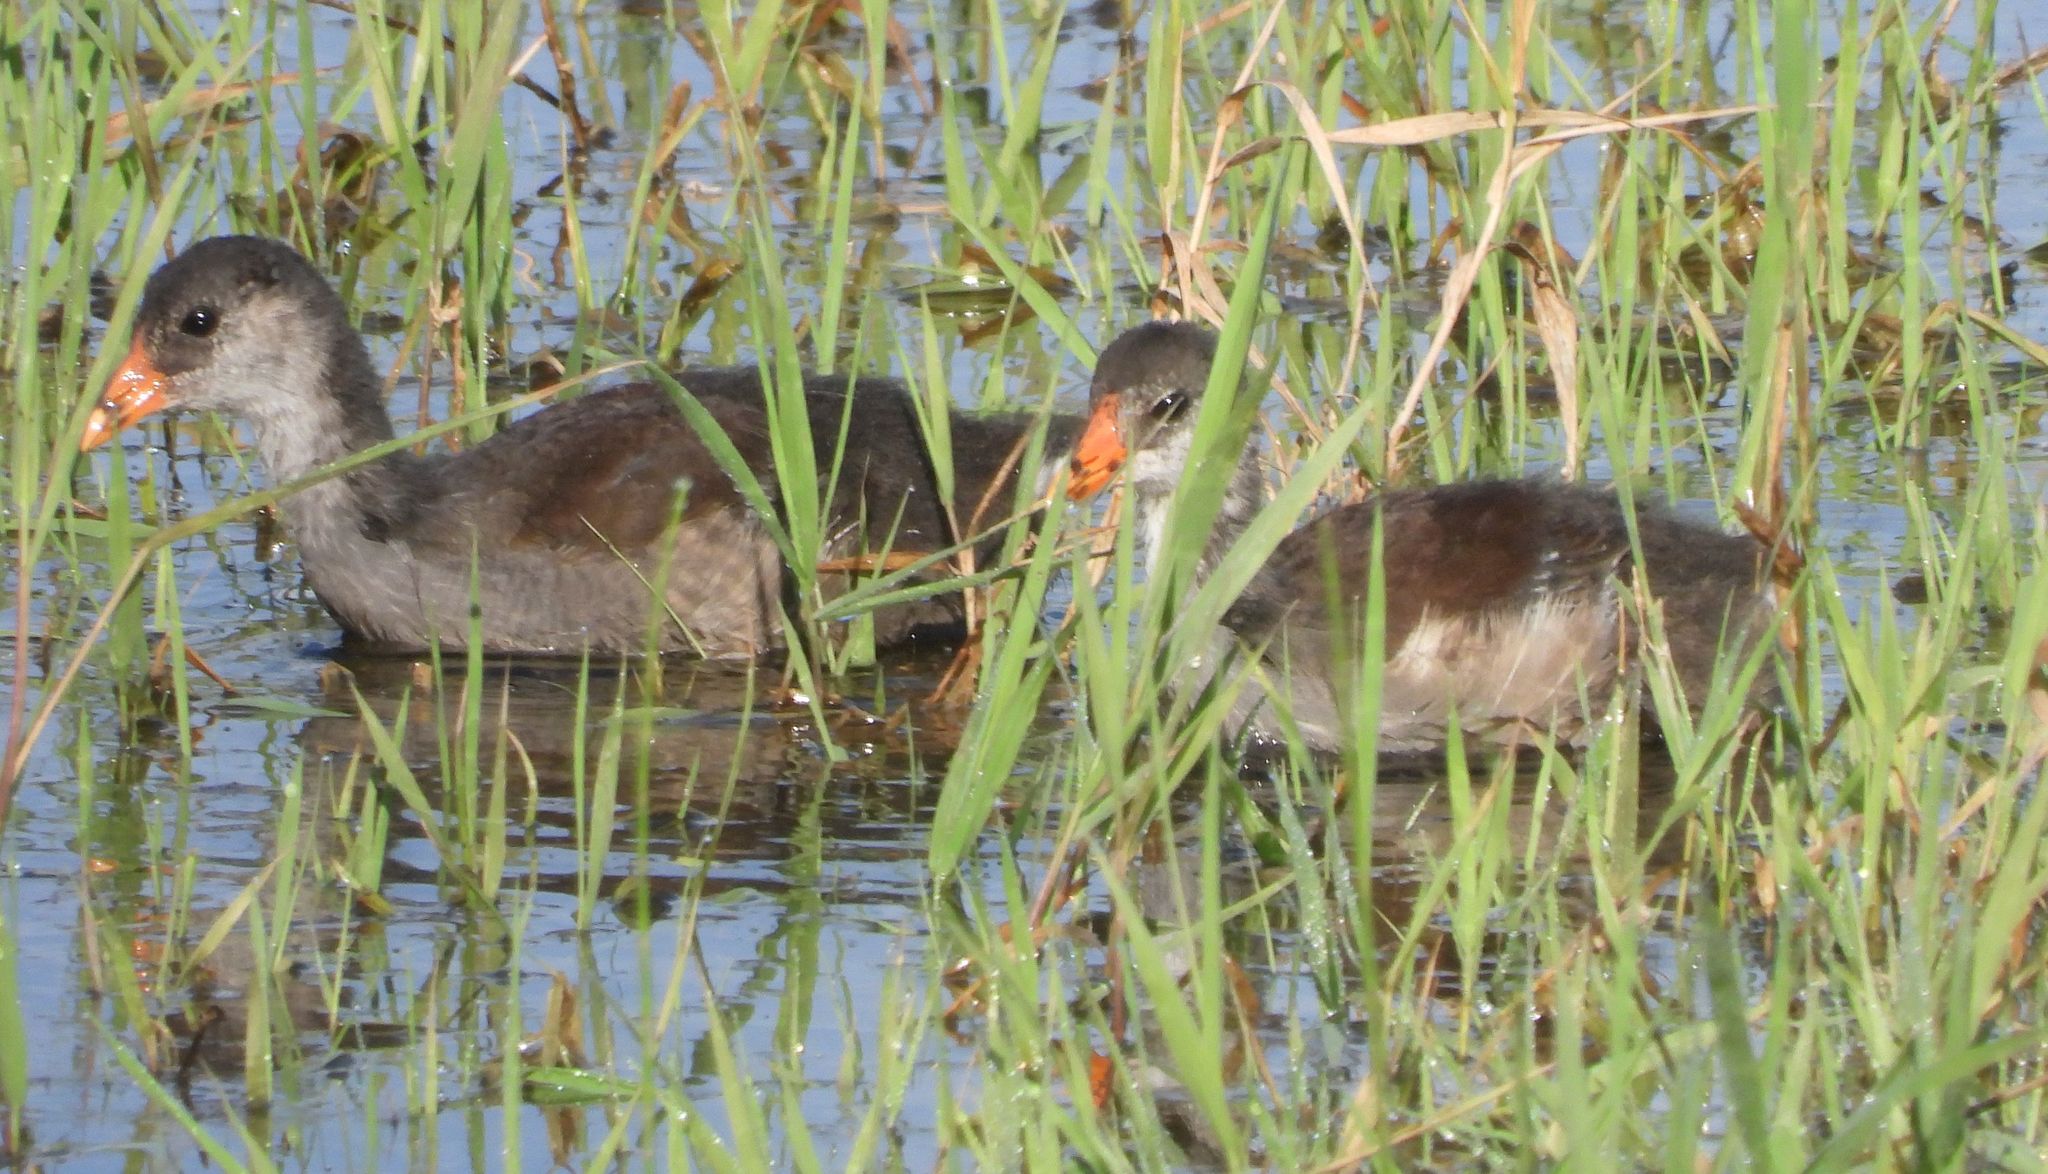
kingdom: Animalia
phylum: Chordata
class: Aves
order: Gruiformes
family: Rallidae
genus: Gallinula
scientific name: Gallinula chloropus
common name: Common moorhen
